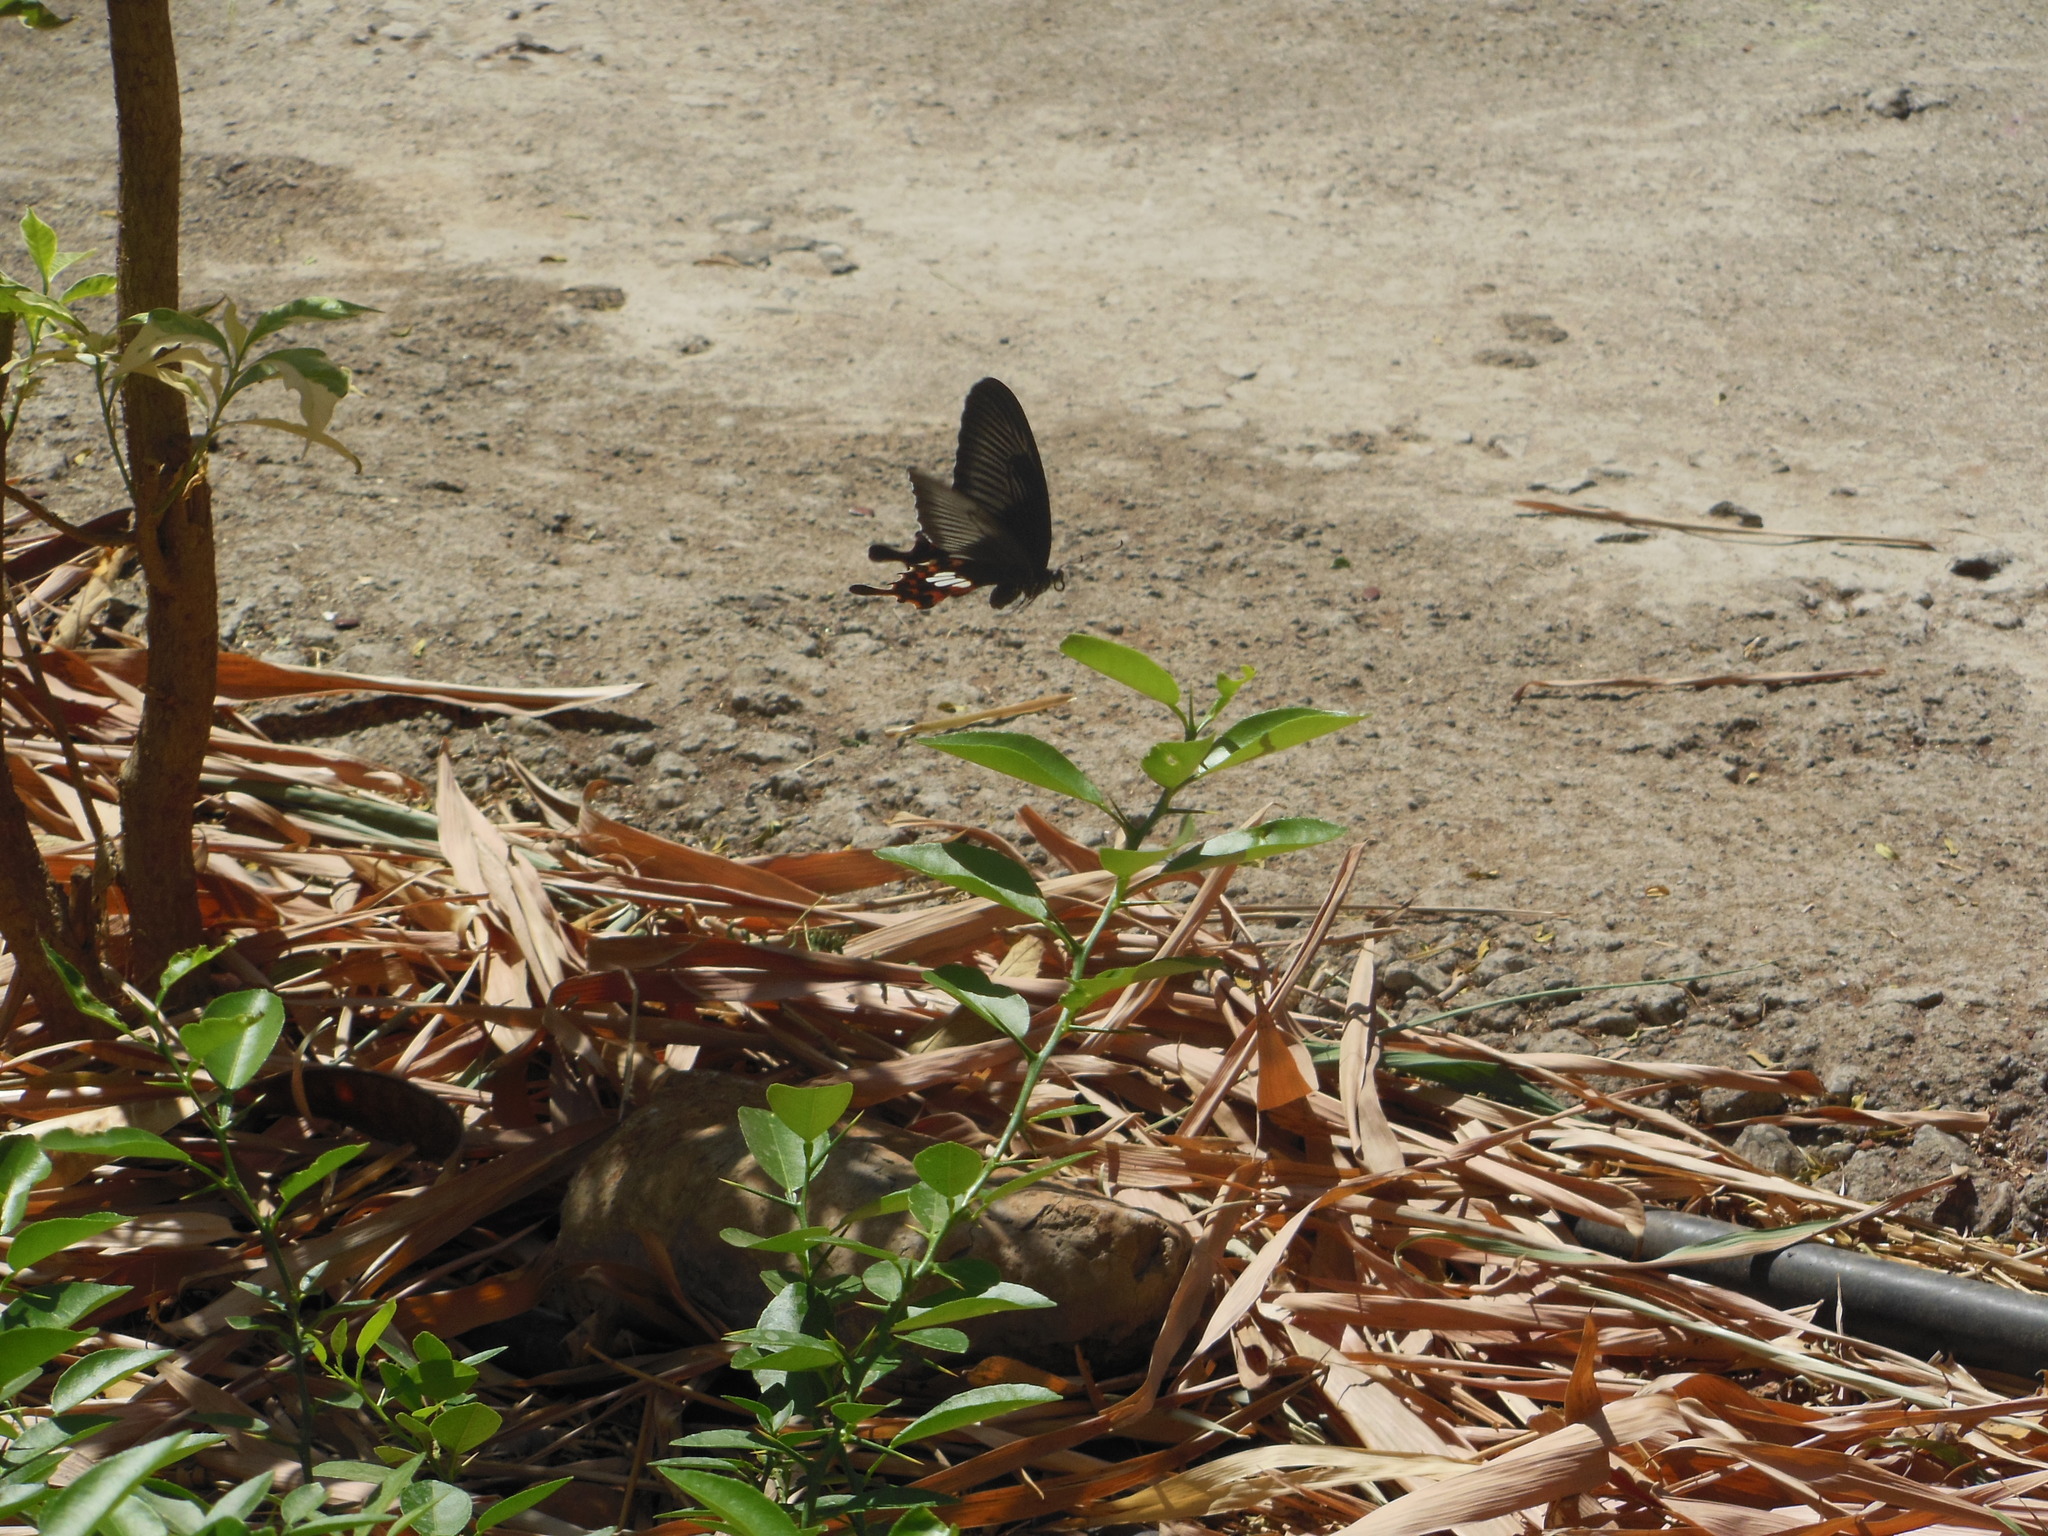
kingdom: Animalia
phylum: Arthropoda
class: Insecta
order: Lepidoptera
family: Papilionidae
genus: Papilio
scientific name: Papilio polytes
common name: Common mormon
